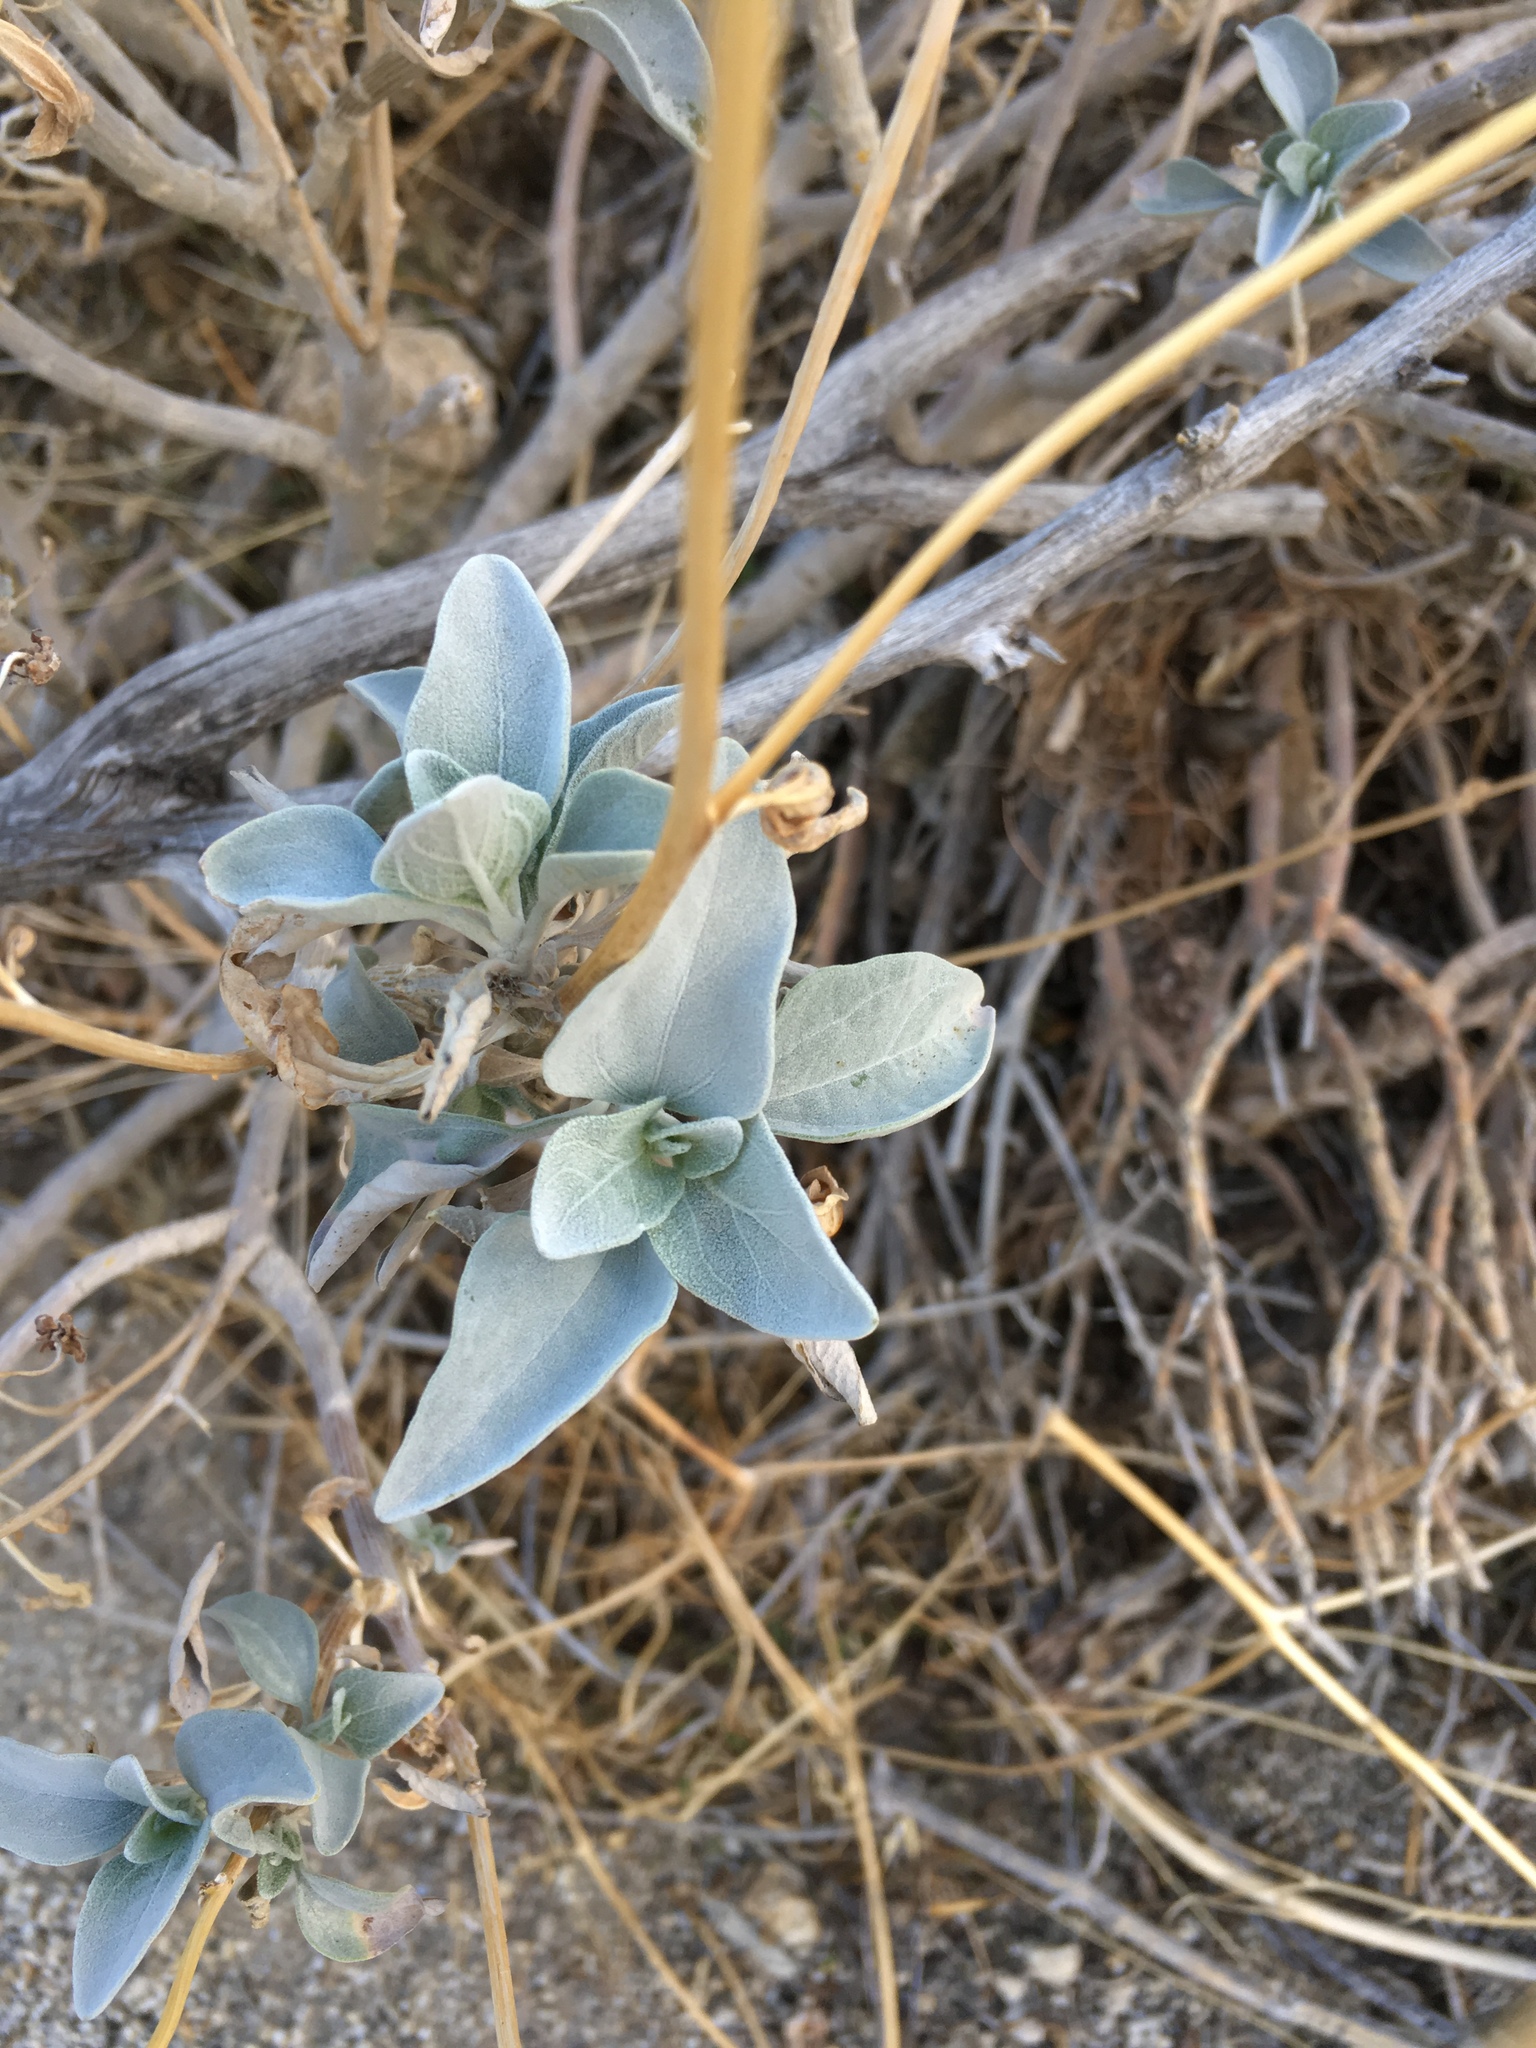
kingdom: Plantae
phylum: Tracheophyta
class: Magnoliopsida
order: Asterales
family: Asteraceae
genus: Encelia
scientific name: Encelia farinosa
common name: Brittlebush
